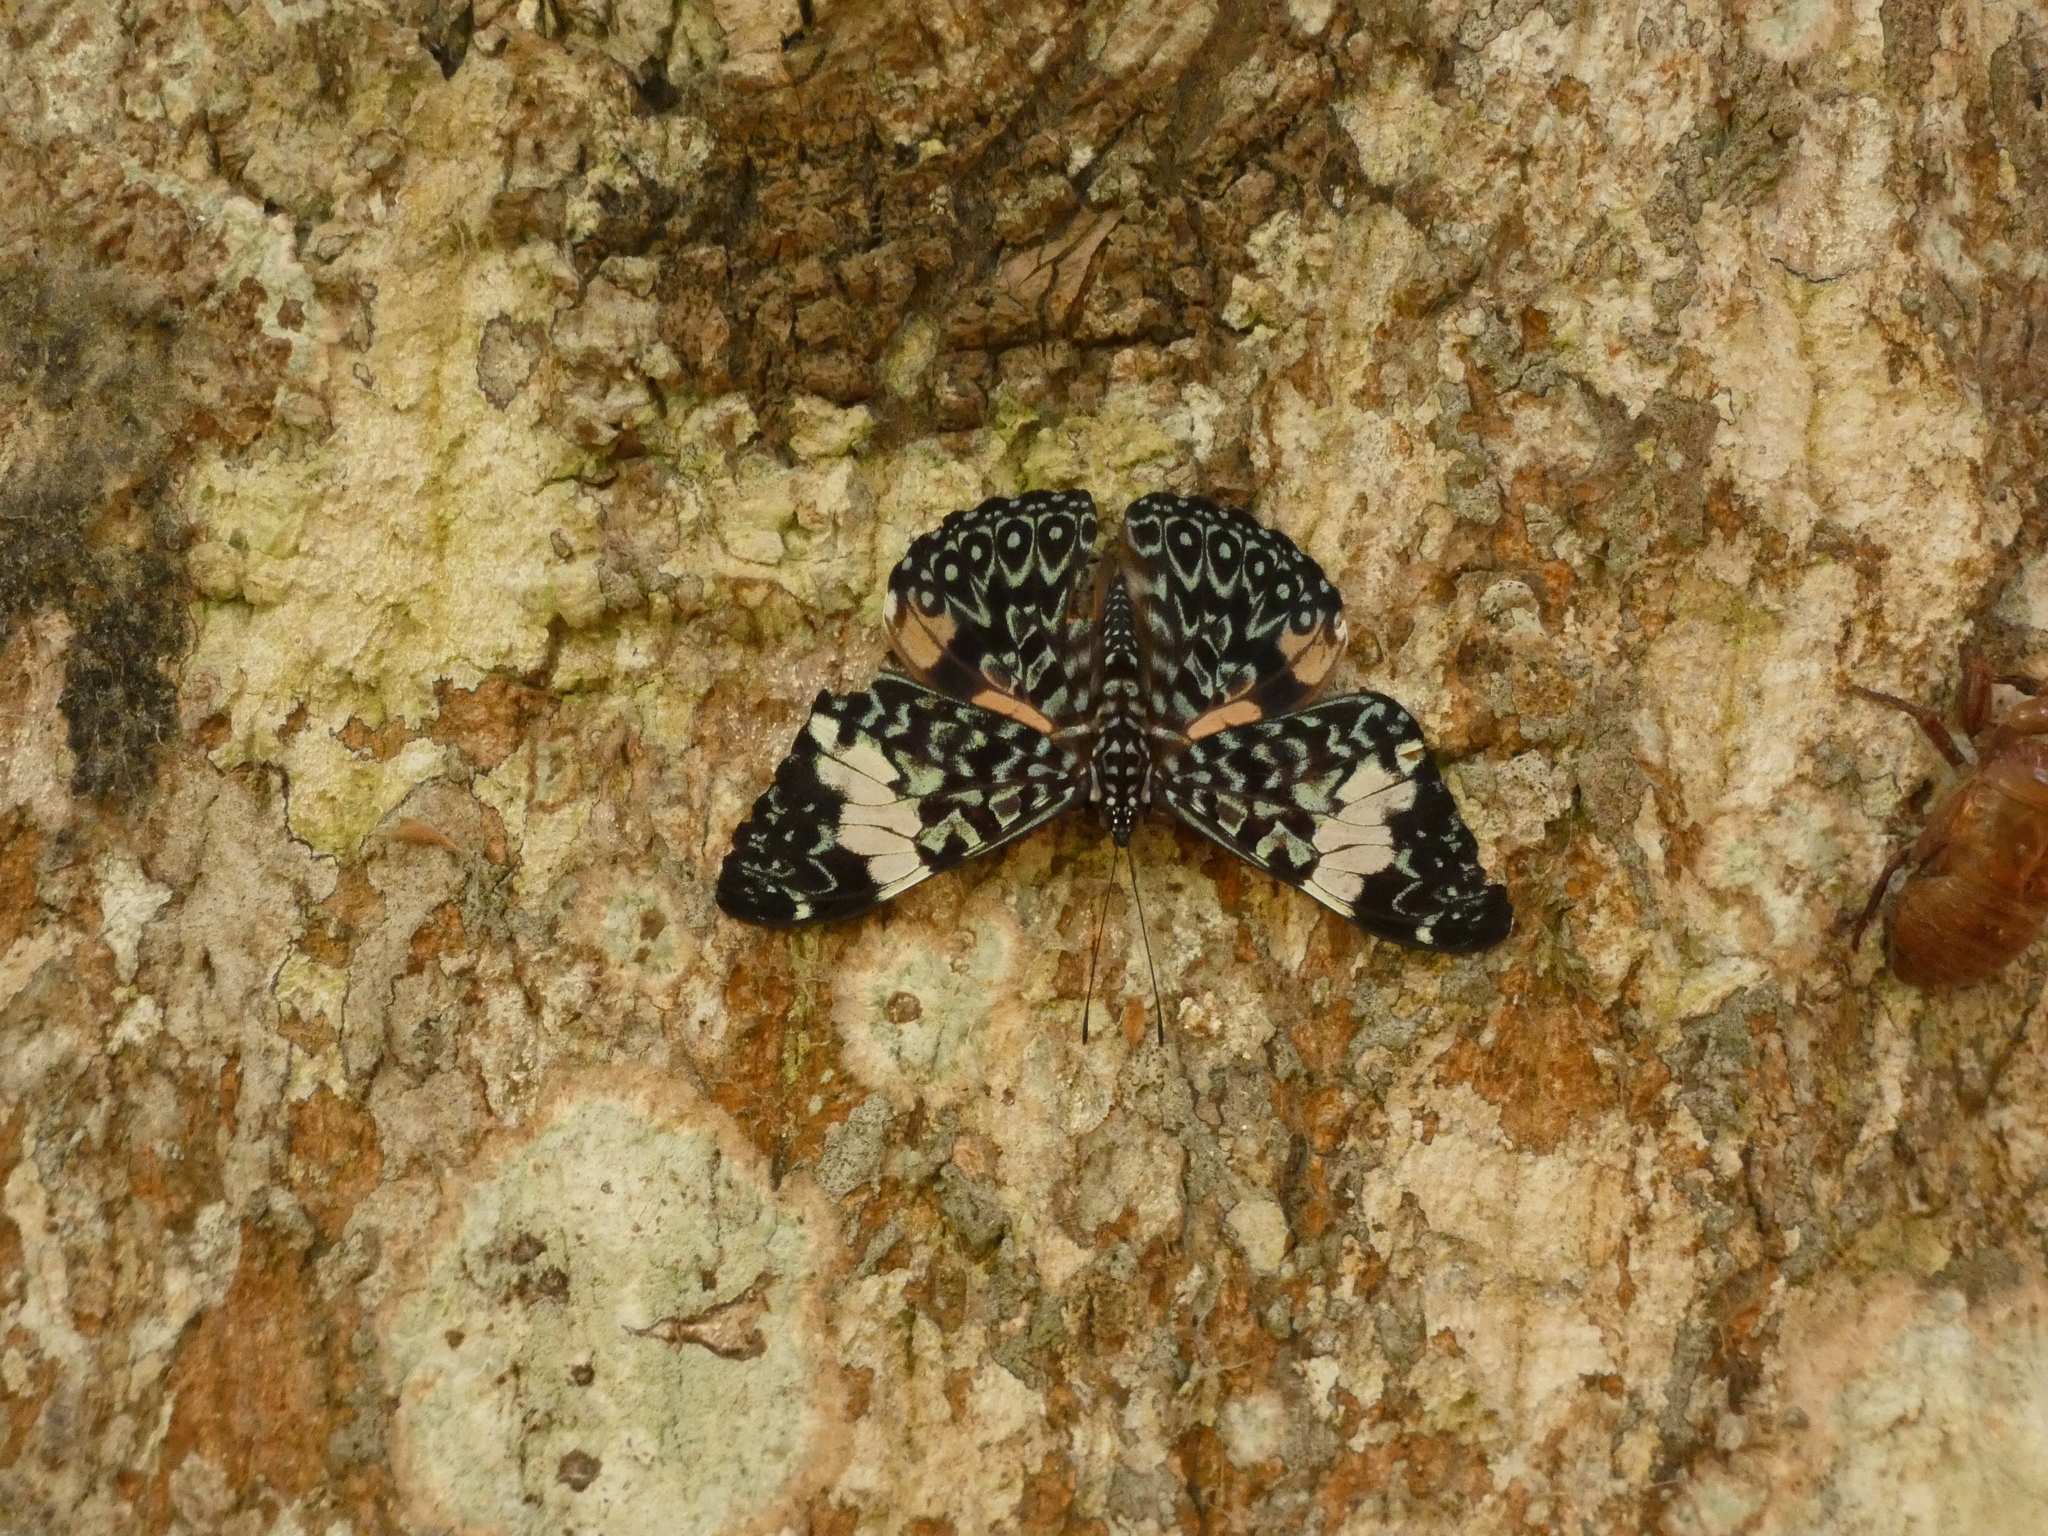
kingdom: Animalia
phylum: Arthropoda
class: Insecta
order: Lepidoptera
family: Nymphalidae
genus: Hamadryas
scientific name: Hamadryas amphinome
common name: Red cracker
